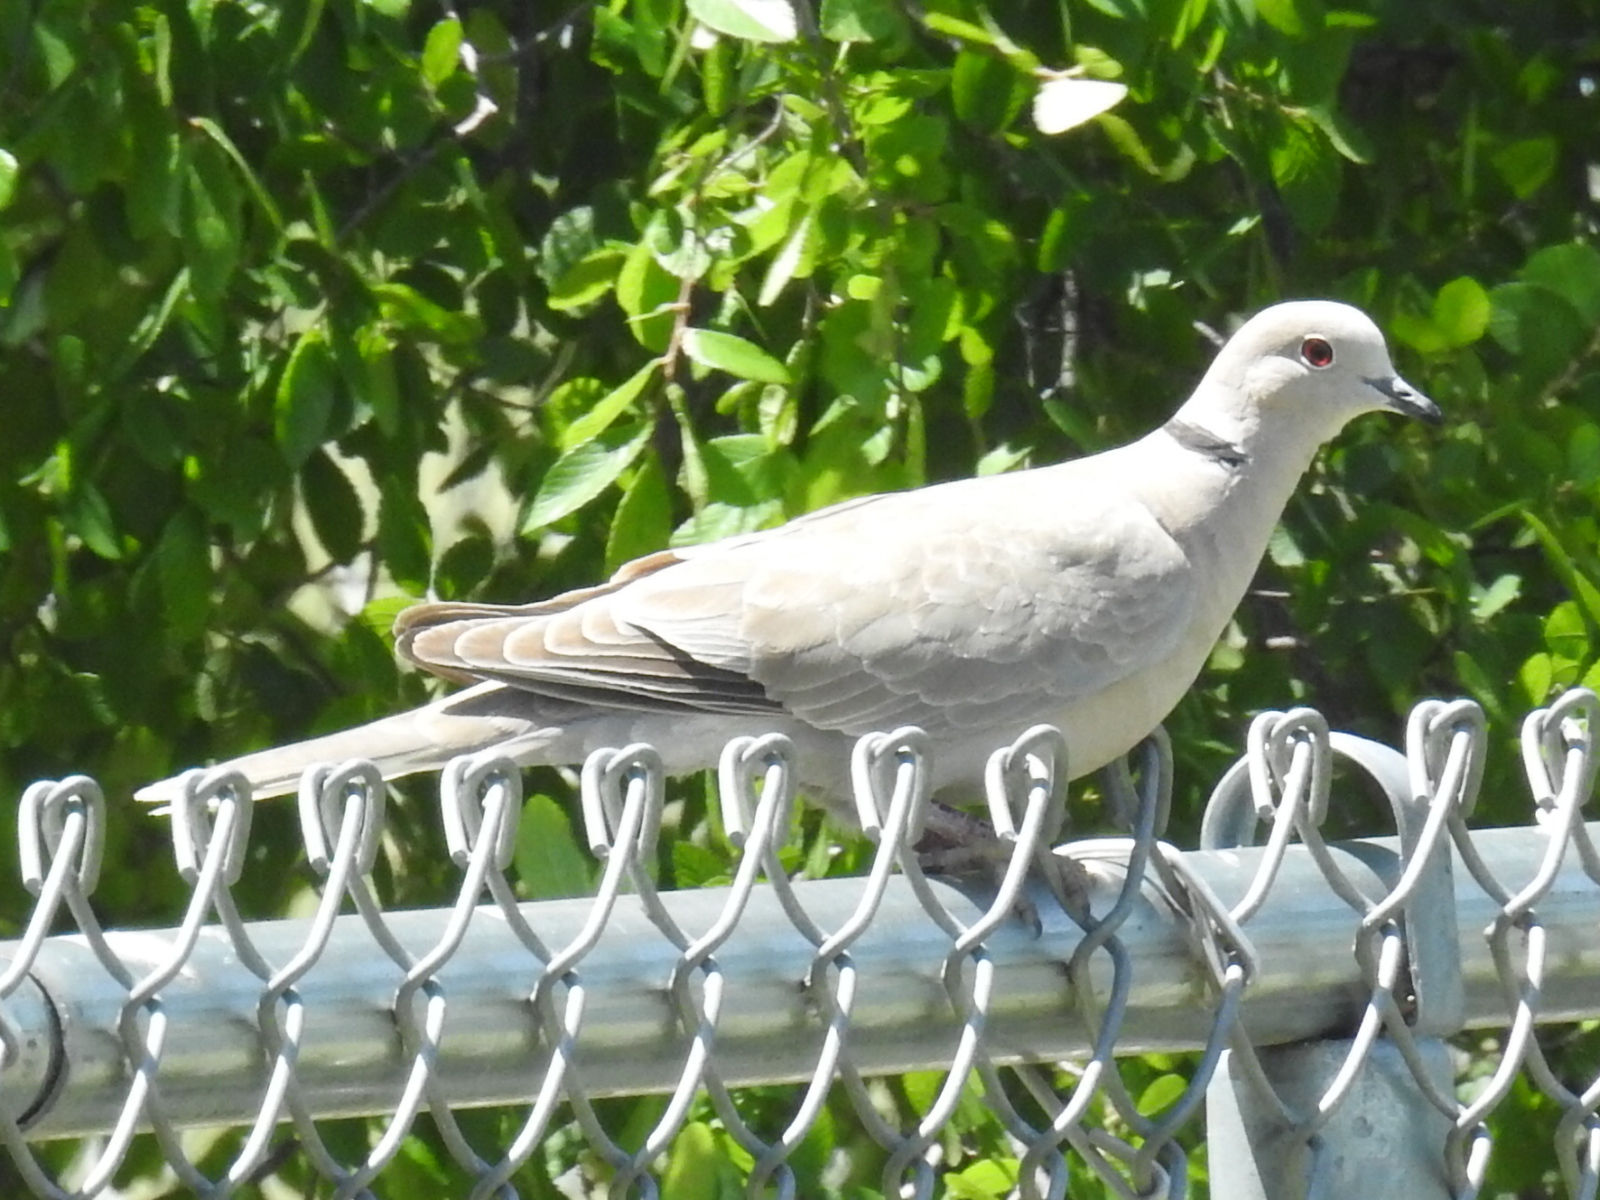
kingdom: Animalia
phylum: Chordata
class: Aves
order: Columbiformes
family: Columbidae
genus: Streptopelia
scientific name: Streptopelia decaocto
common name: Eurasian collared dove
